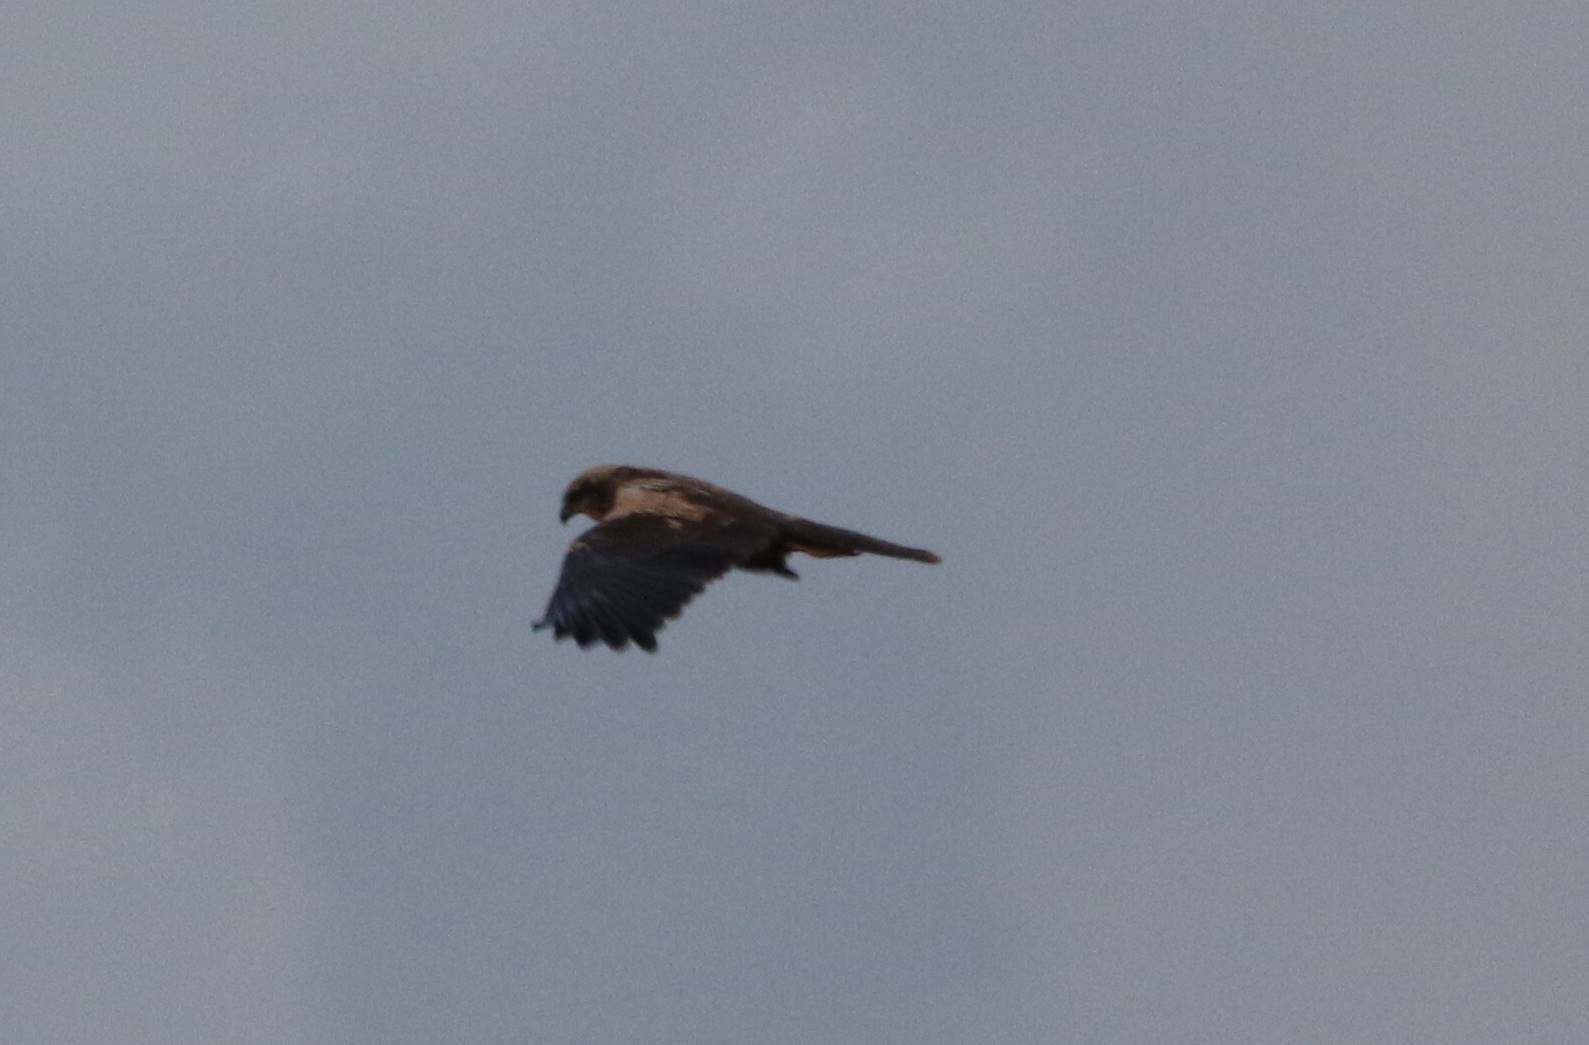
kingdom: Animalia
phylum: Chordata
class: Aves
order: Accipitriformes
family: Accipitridae
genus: Circus
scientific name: Circus aeruginosus
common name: Western marsh harrier
